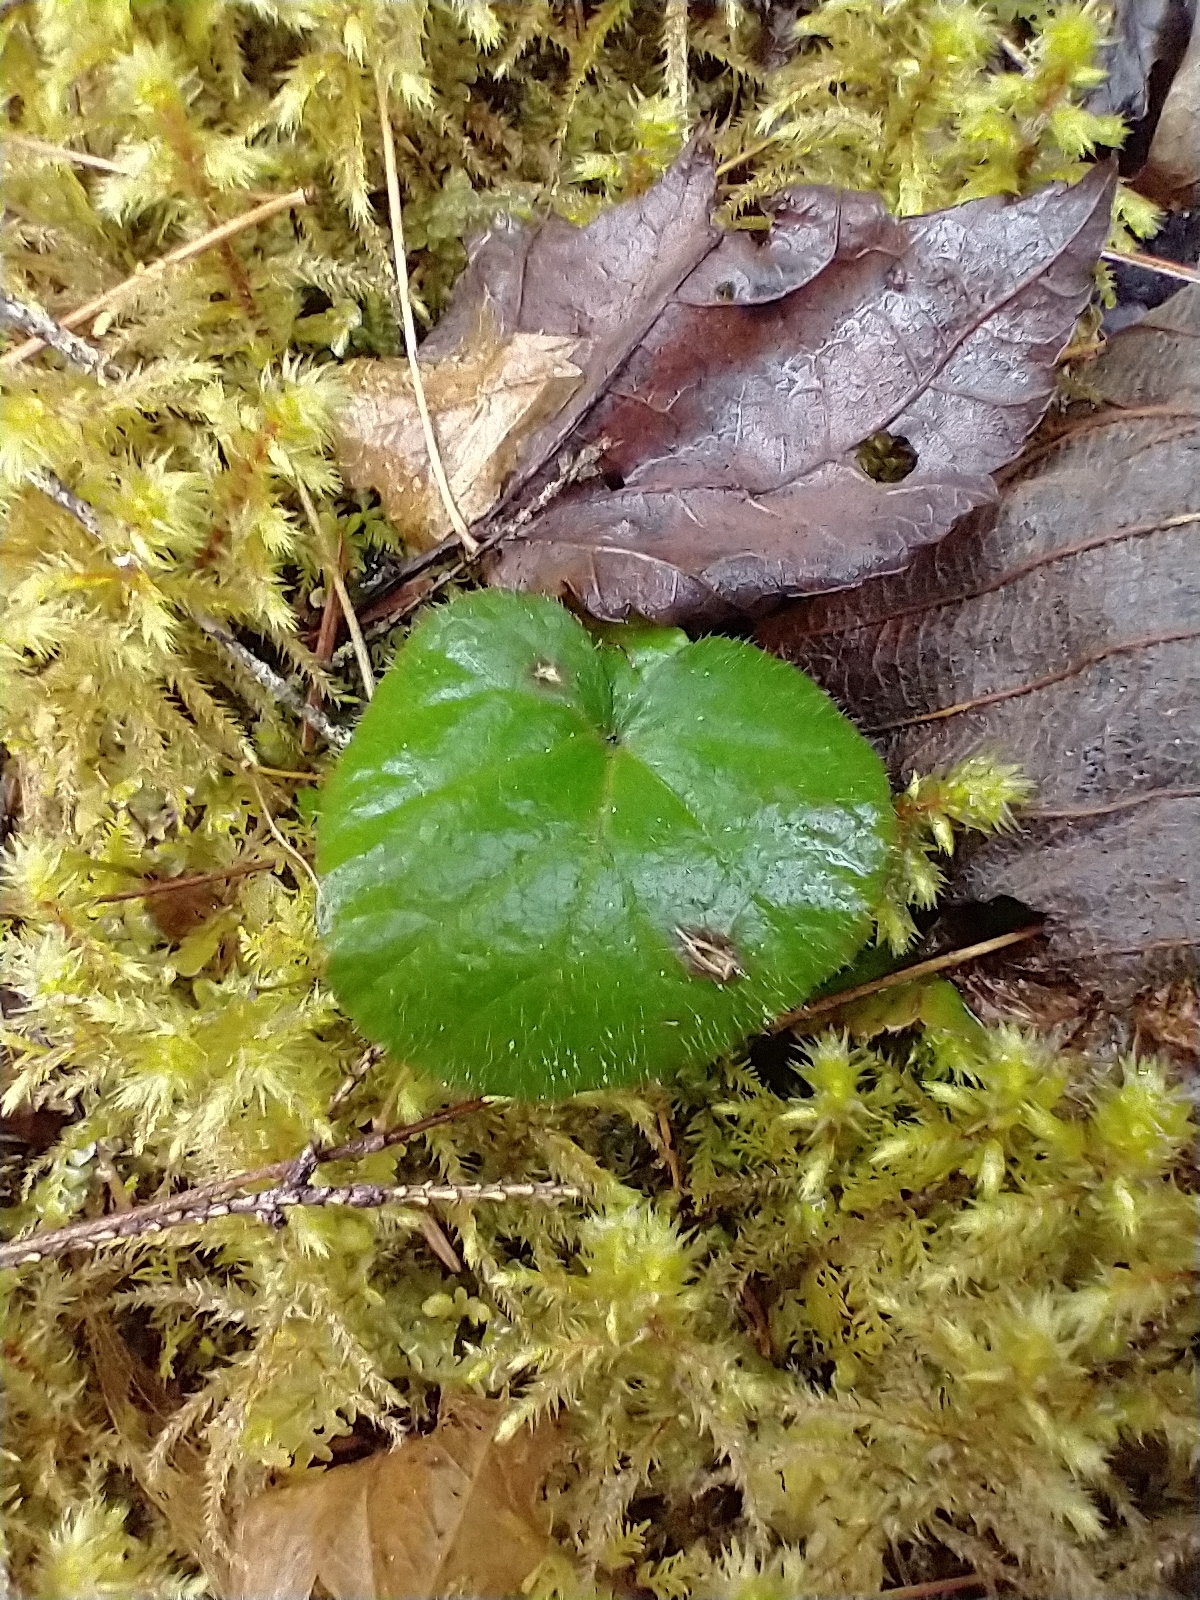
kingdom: Plantae
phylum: Tracheophyta
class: Magnoliopsida
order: Rosales
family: Rosaceae
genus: Dalibarda
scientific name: Dalibarda repens
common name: Dewdrop
